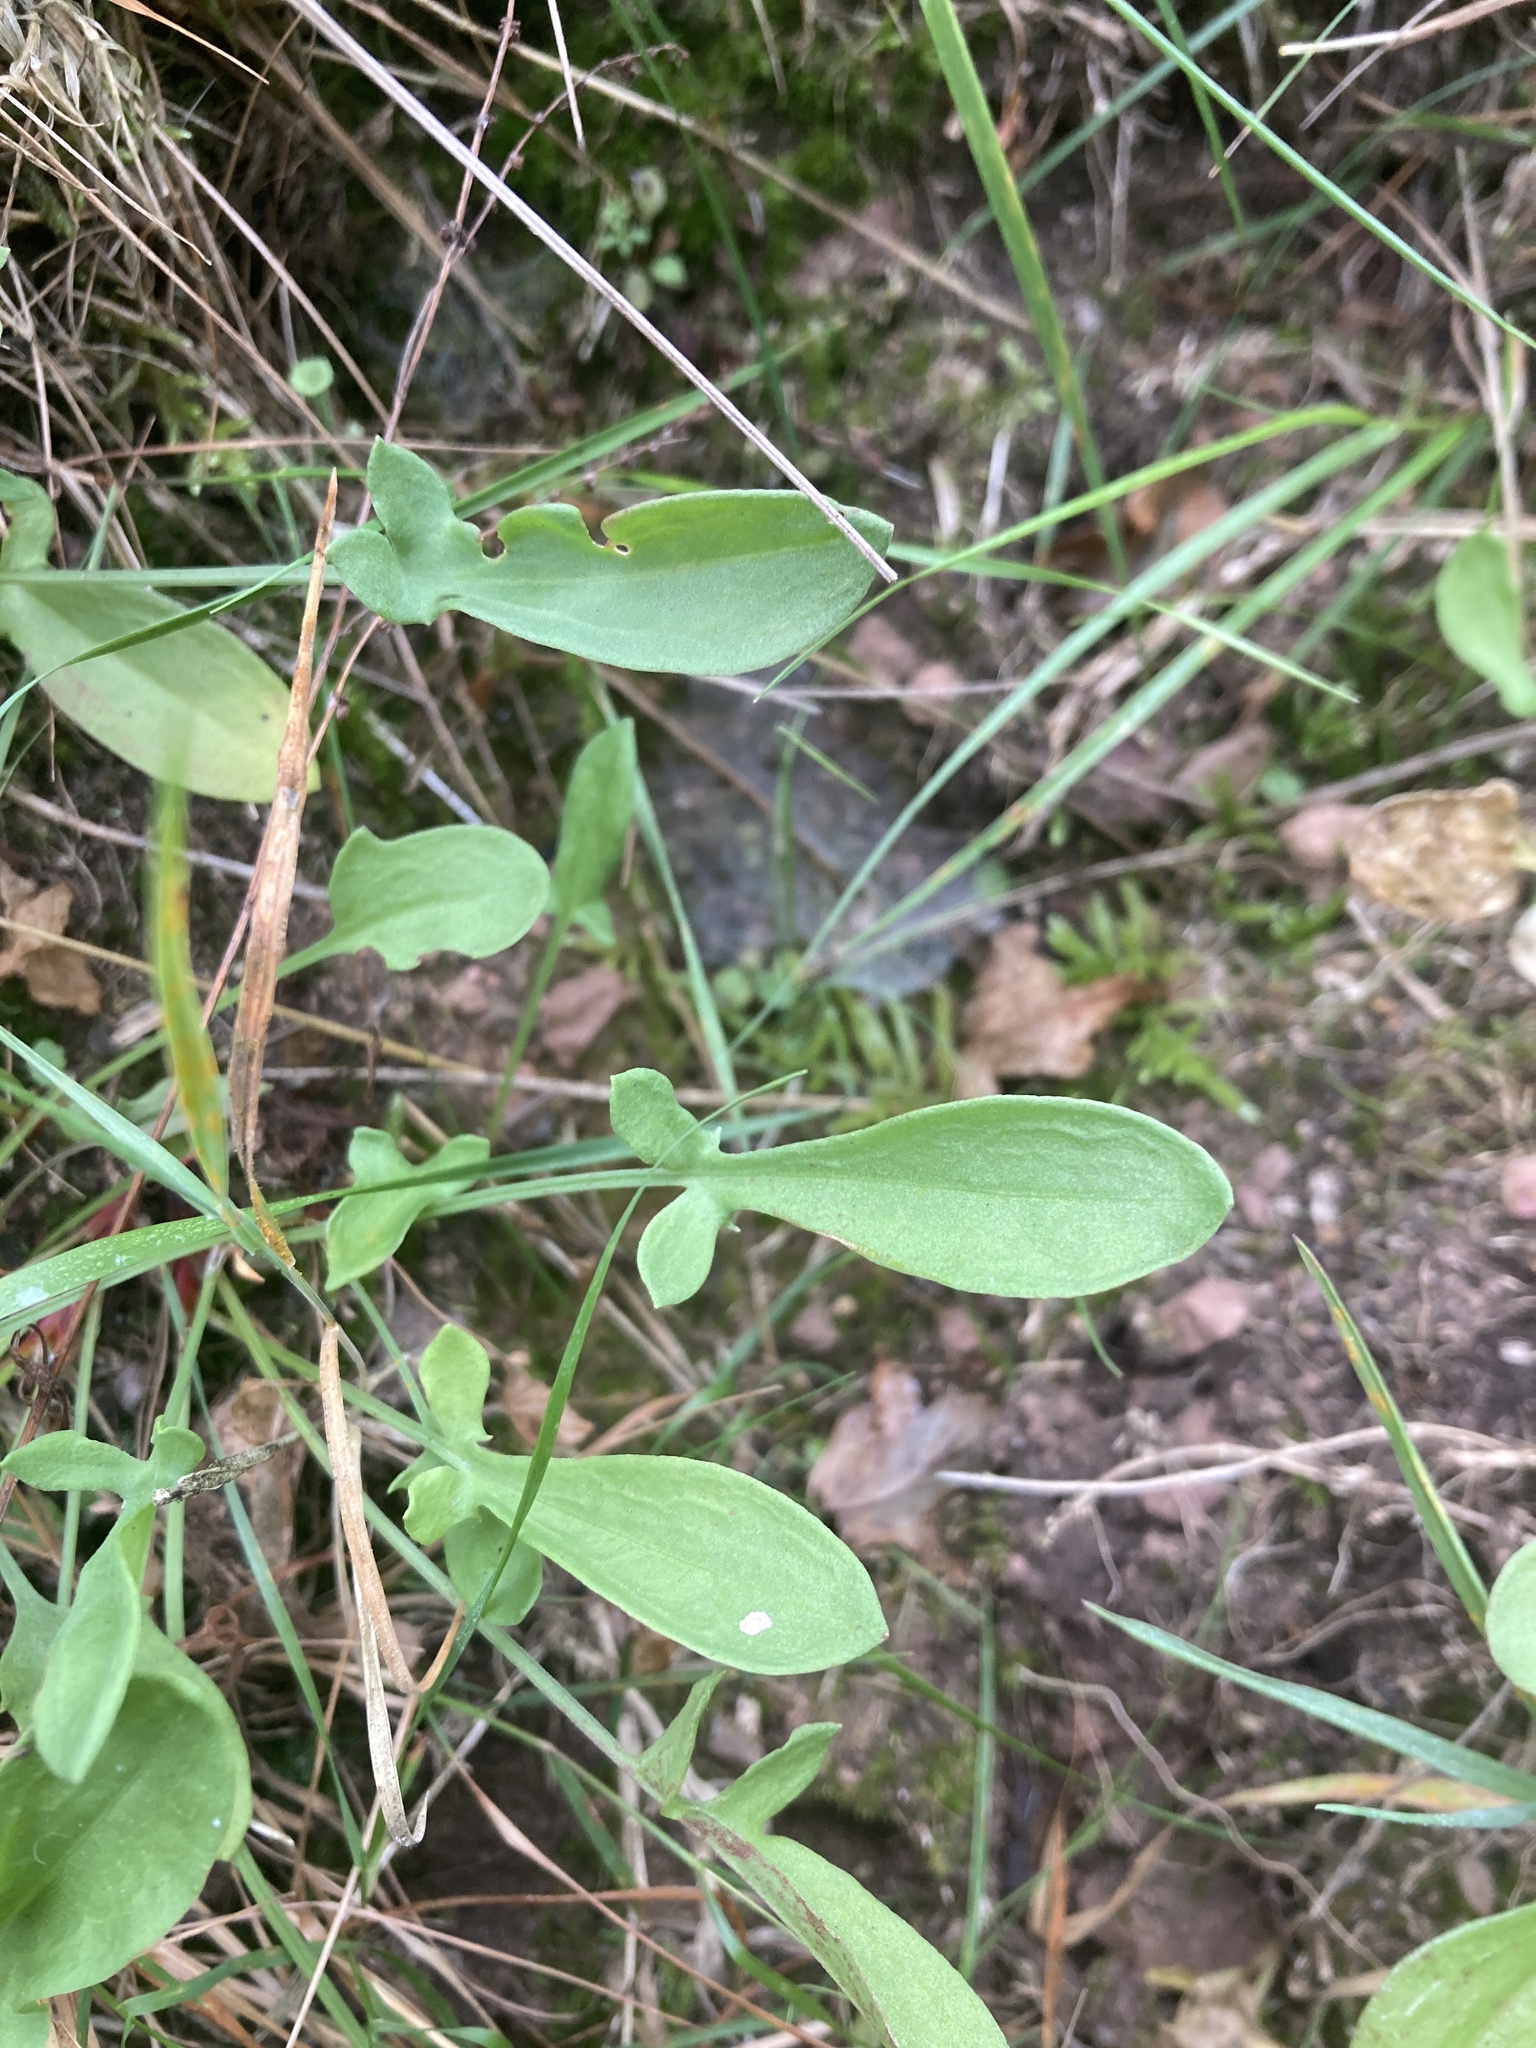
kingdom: Plantae
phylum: Tracheophyta
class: Magnoliopsida
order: Caryophyllales
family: Polygonaceae
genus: Rumex
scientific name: Rumex acetosella
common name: Common sheep sorrel
